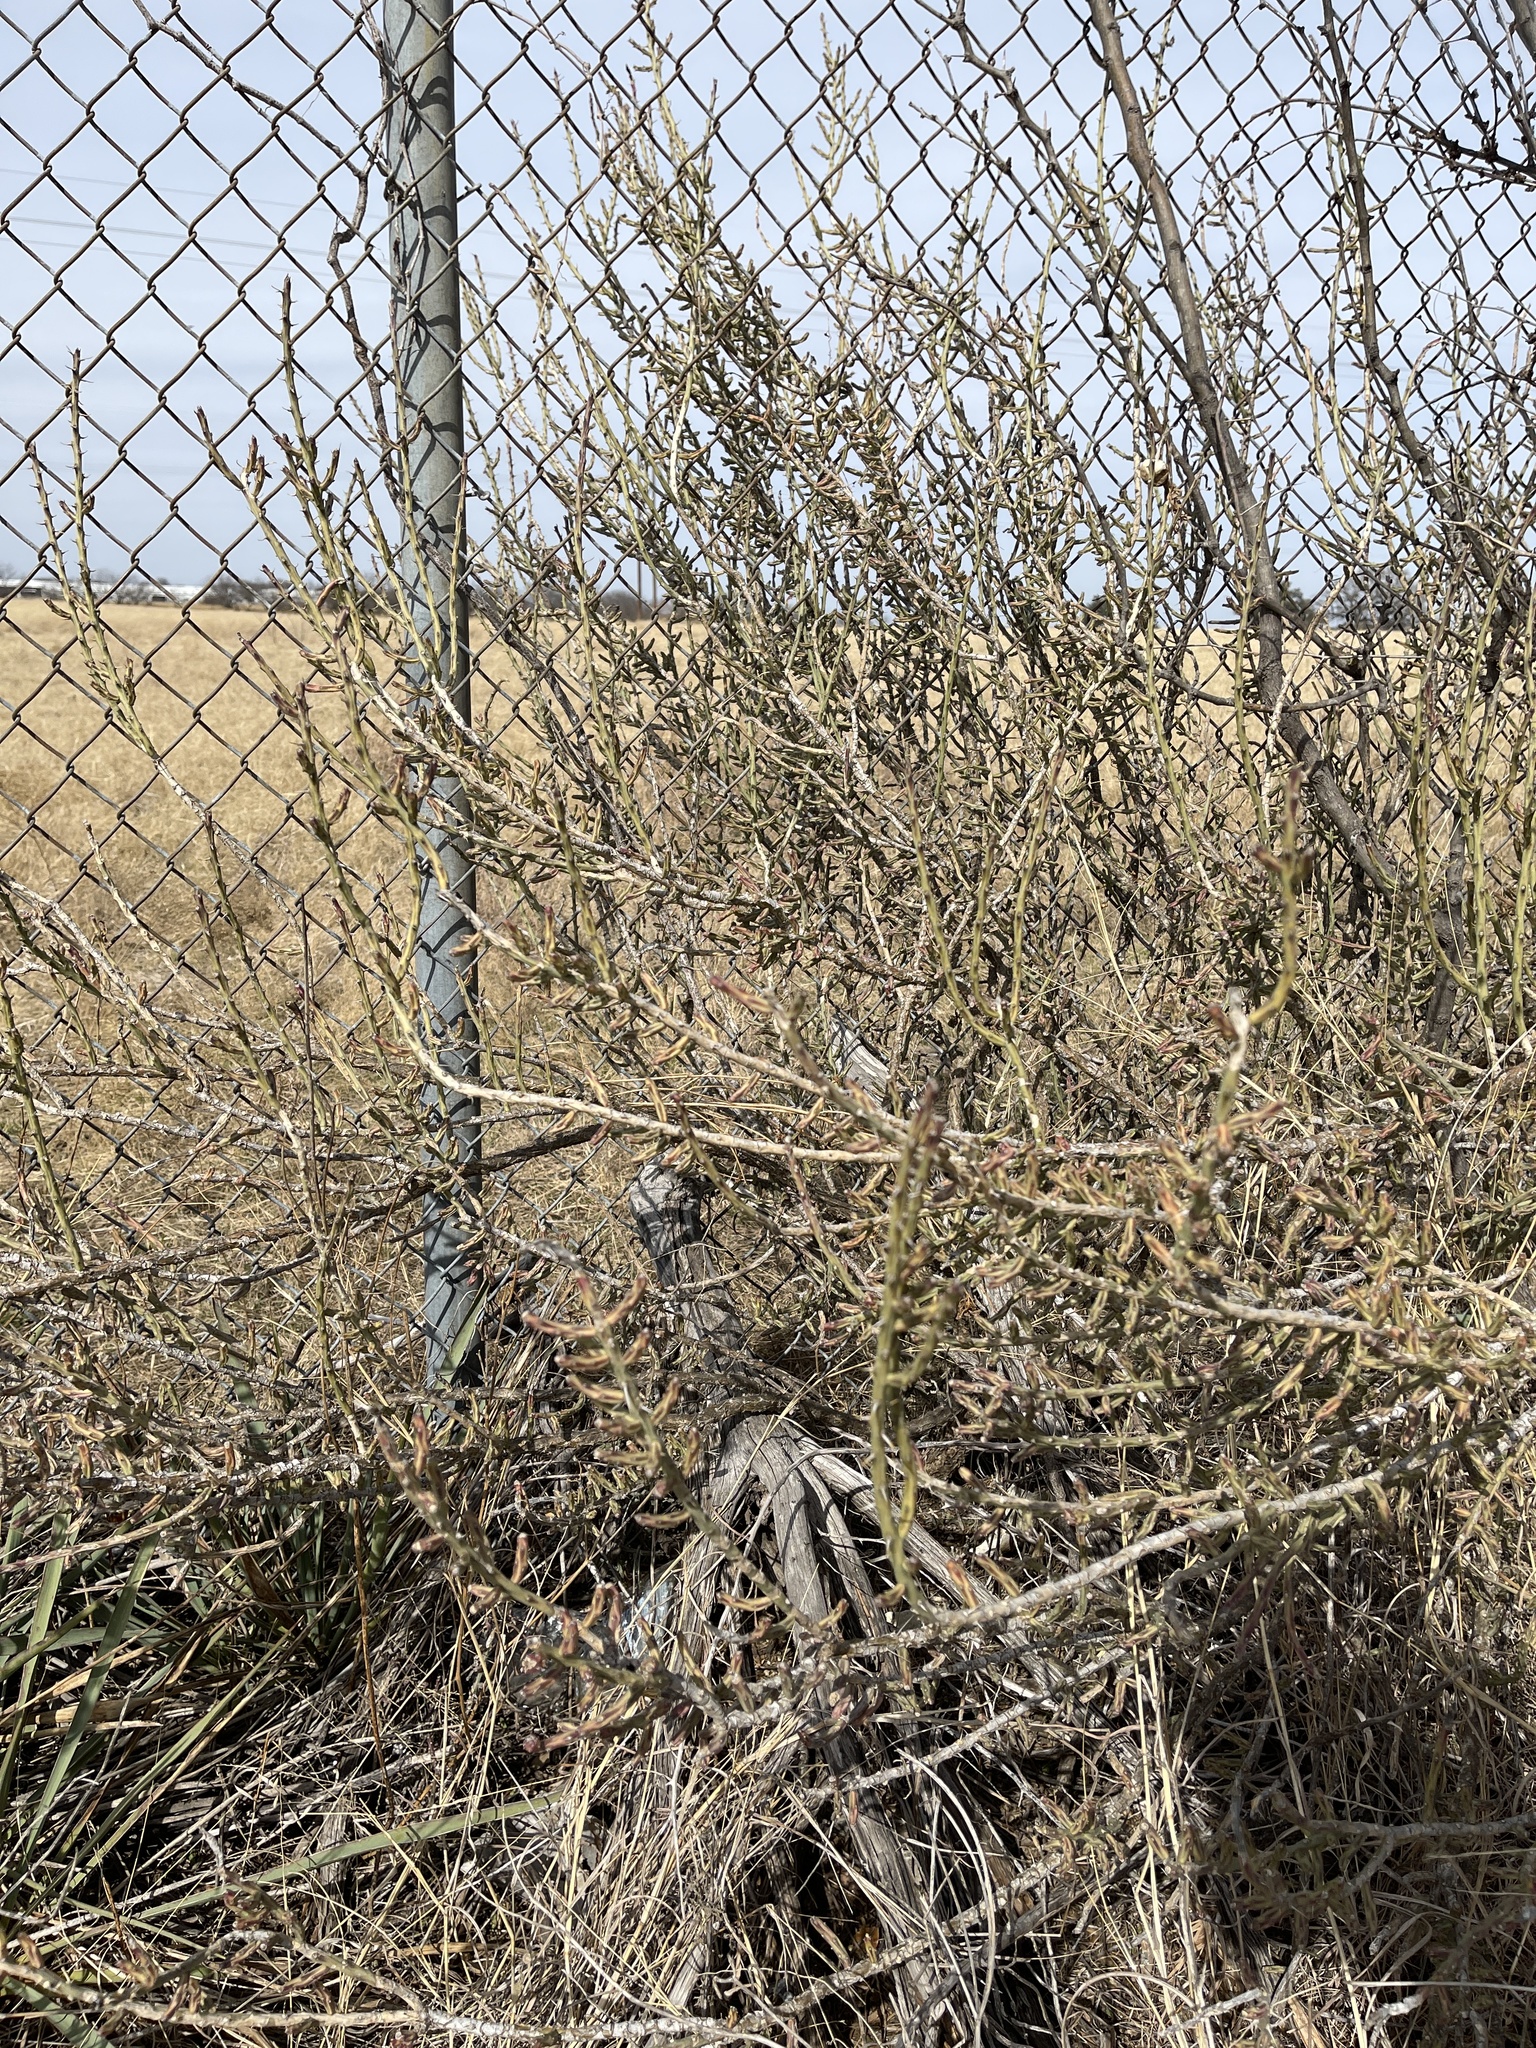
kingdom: Plantae
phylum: Tracheophyta
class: Magnoliopsida
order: Caryophyllales
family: Cactaceae
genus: Cylindropuntia
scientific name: Cylindropuntia leptocaulis
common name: Christmas cactus
